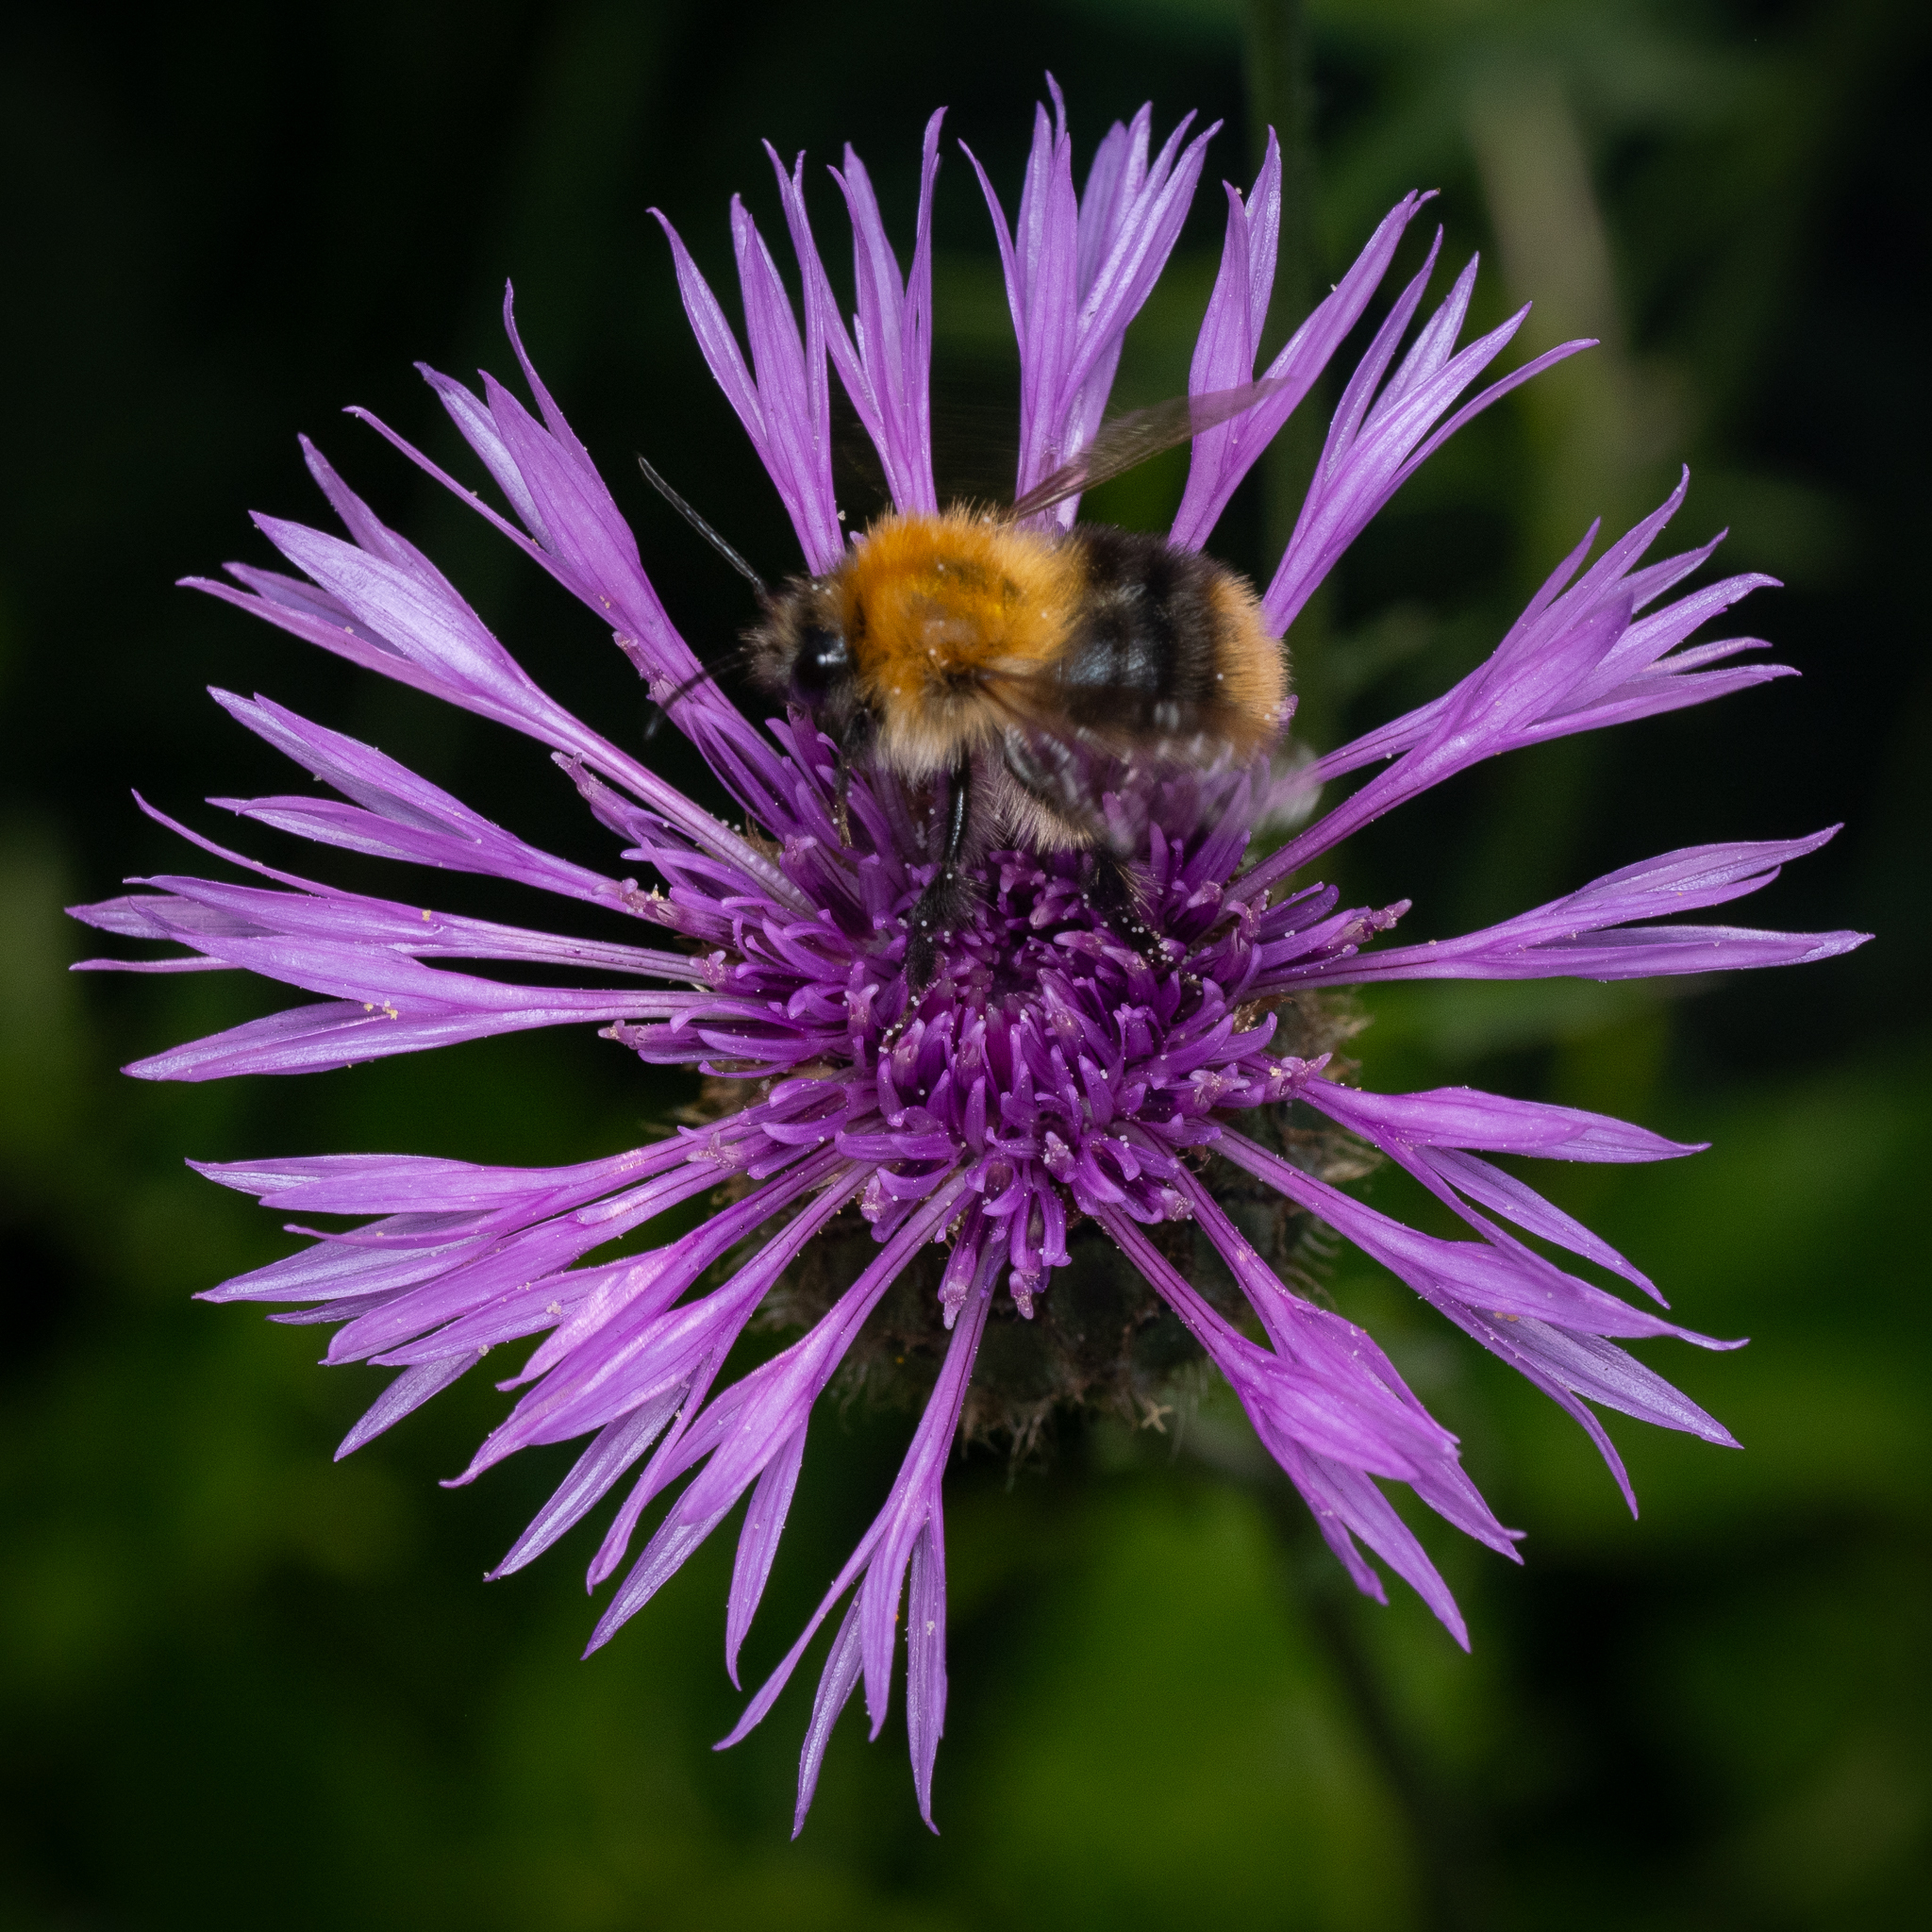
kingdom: Animalia
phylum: Arthropoda
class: Insecta
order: Hymenoptera
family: Apidae
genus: Bombus
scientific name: Bombus pascuorum
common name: Common carder bee
